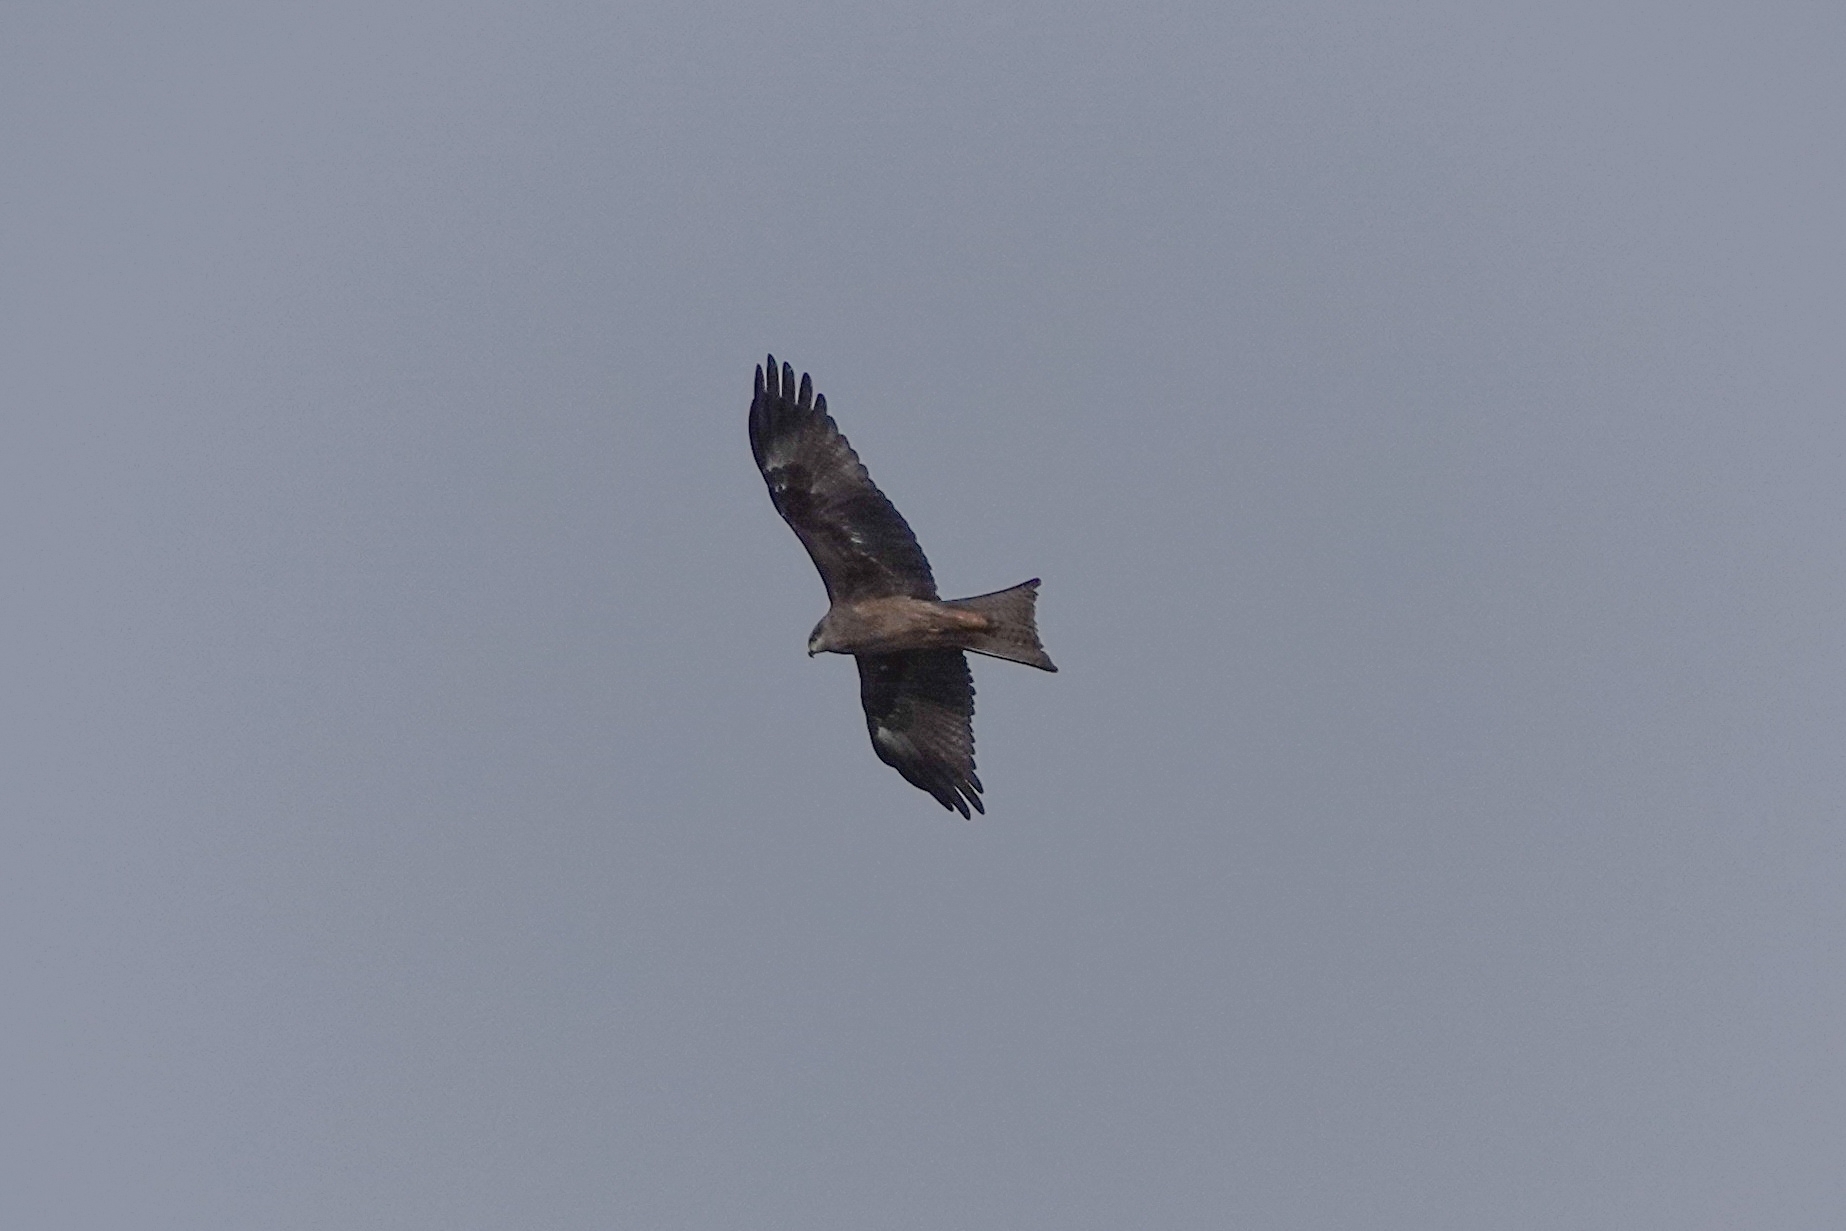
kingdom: Animalia
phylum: Chordata
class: Aves
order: Accipitriformes
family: Accipitridae
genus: Milvus
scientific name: Milvus migrans
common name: Black kite
